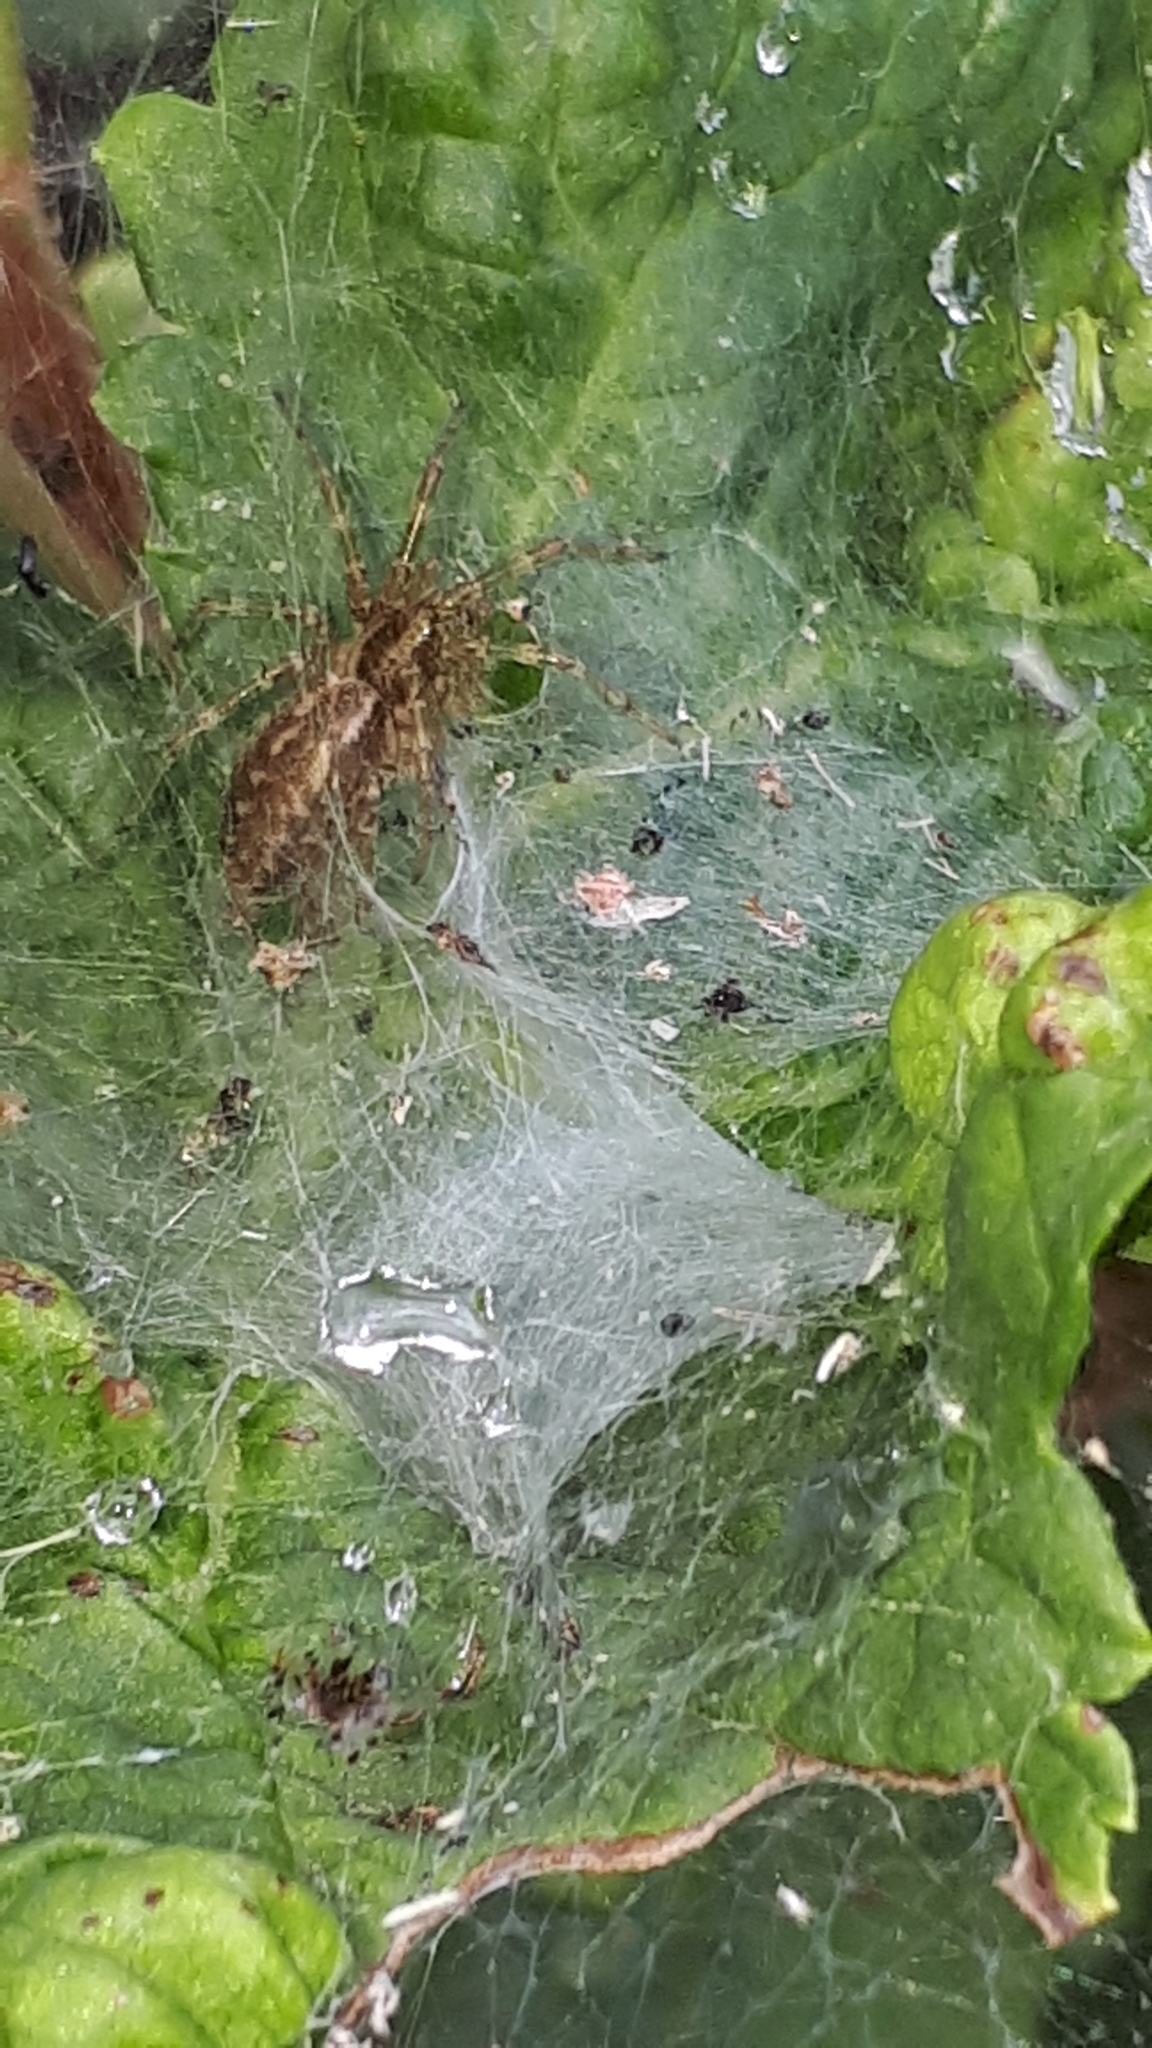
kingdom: Animalia
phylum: Arthropoda
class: Arachnida
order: Araneae
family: Agelenidae
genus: Allagelena
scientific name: Allagelena gracilens
